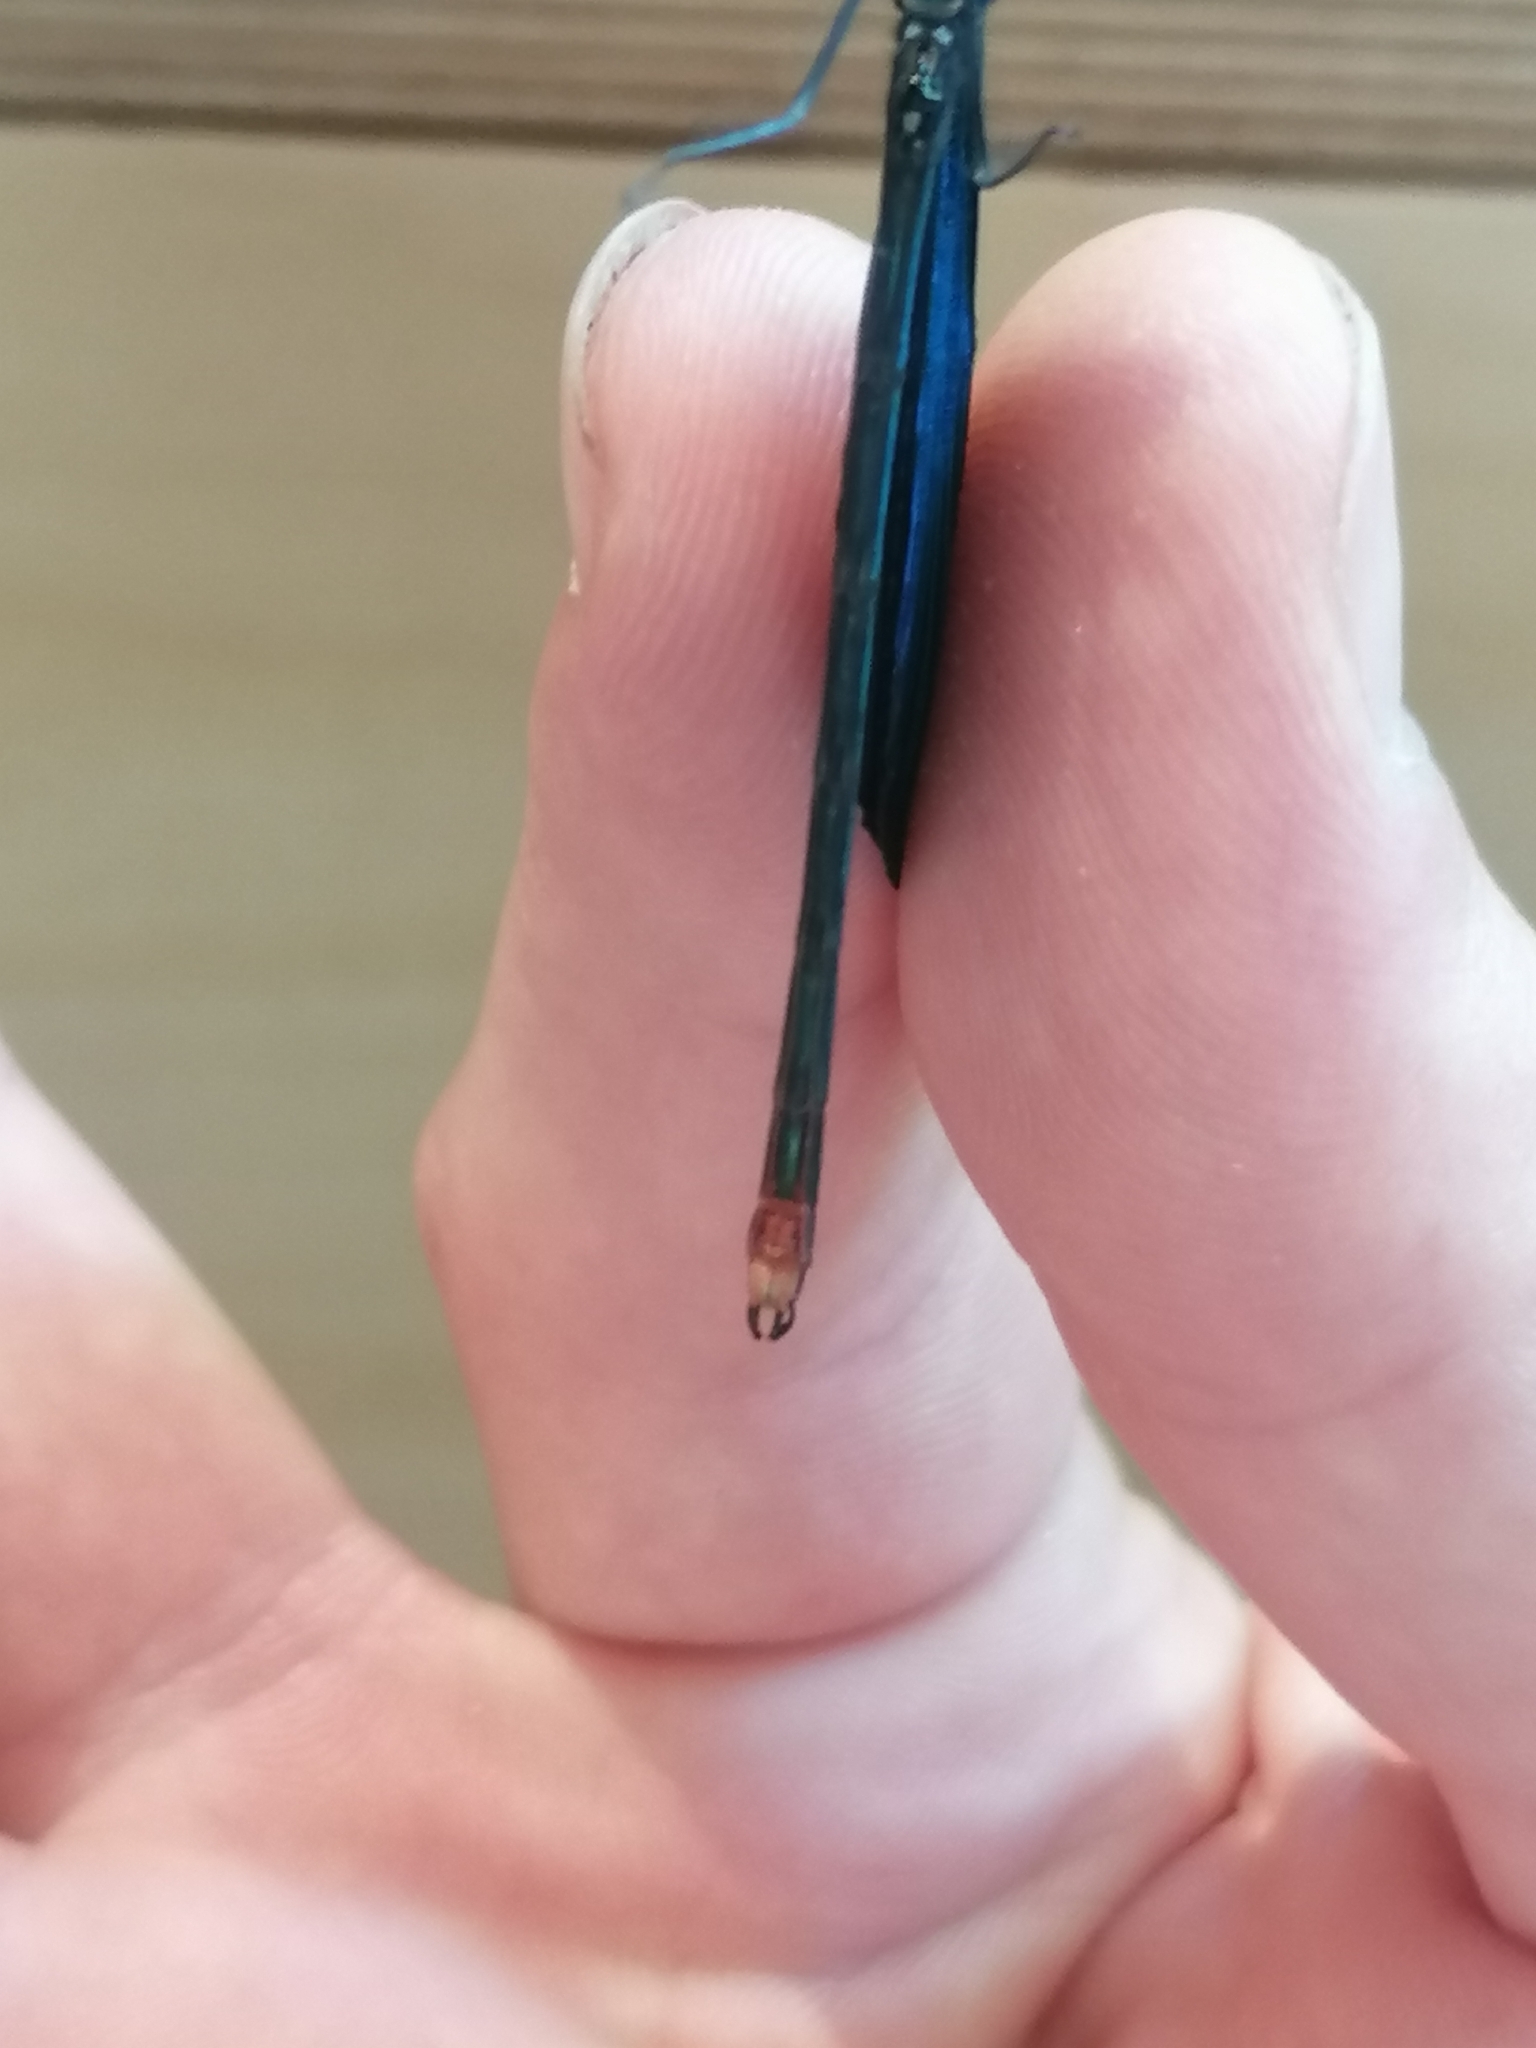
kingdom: Animalia
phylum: Arthropoda
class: Insecta
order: Odonata
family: Calopterygidae
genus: Calopteryx
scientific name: Calopteryx virgo
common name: Beautiful demoiselle
